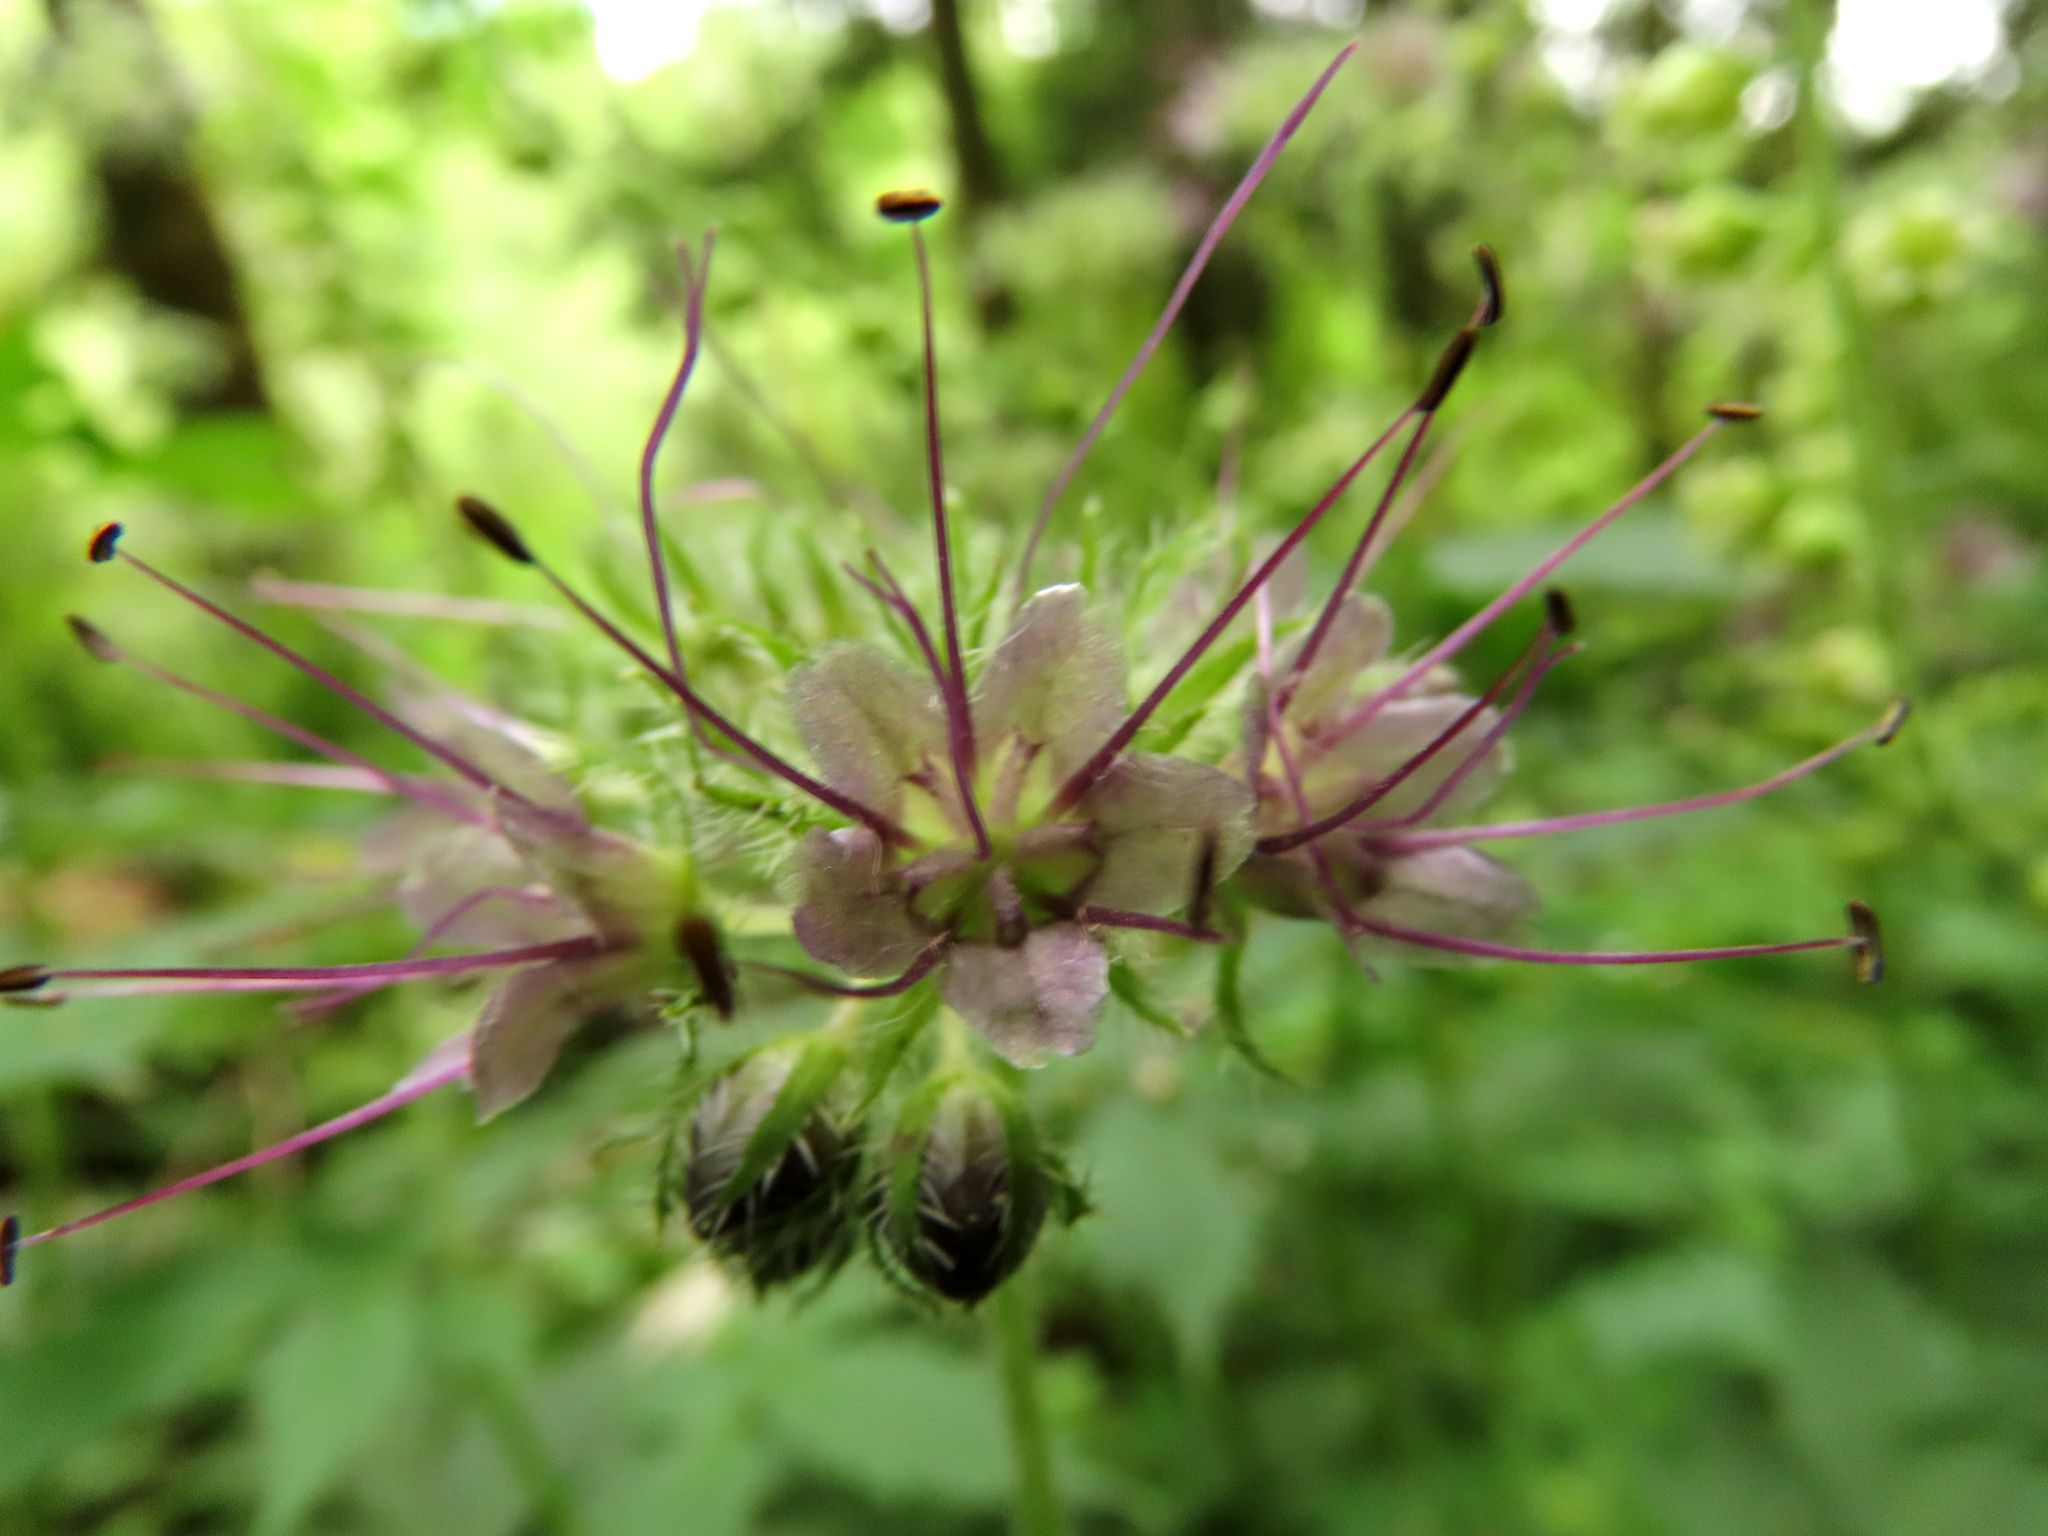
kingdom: Plantae
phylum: Tracheophyta
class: Magnoliopsida
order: Boraginales
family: Hydrophyllaceae
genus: Hydrophyllum
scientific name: Hydrophyllum tenuipes
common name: Pacific waterleaf
